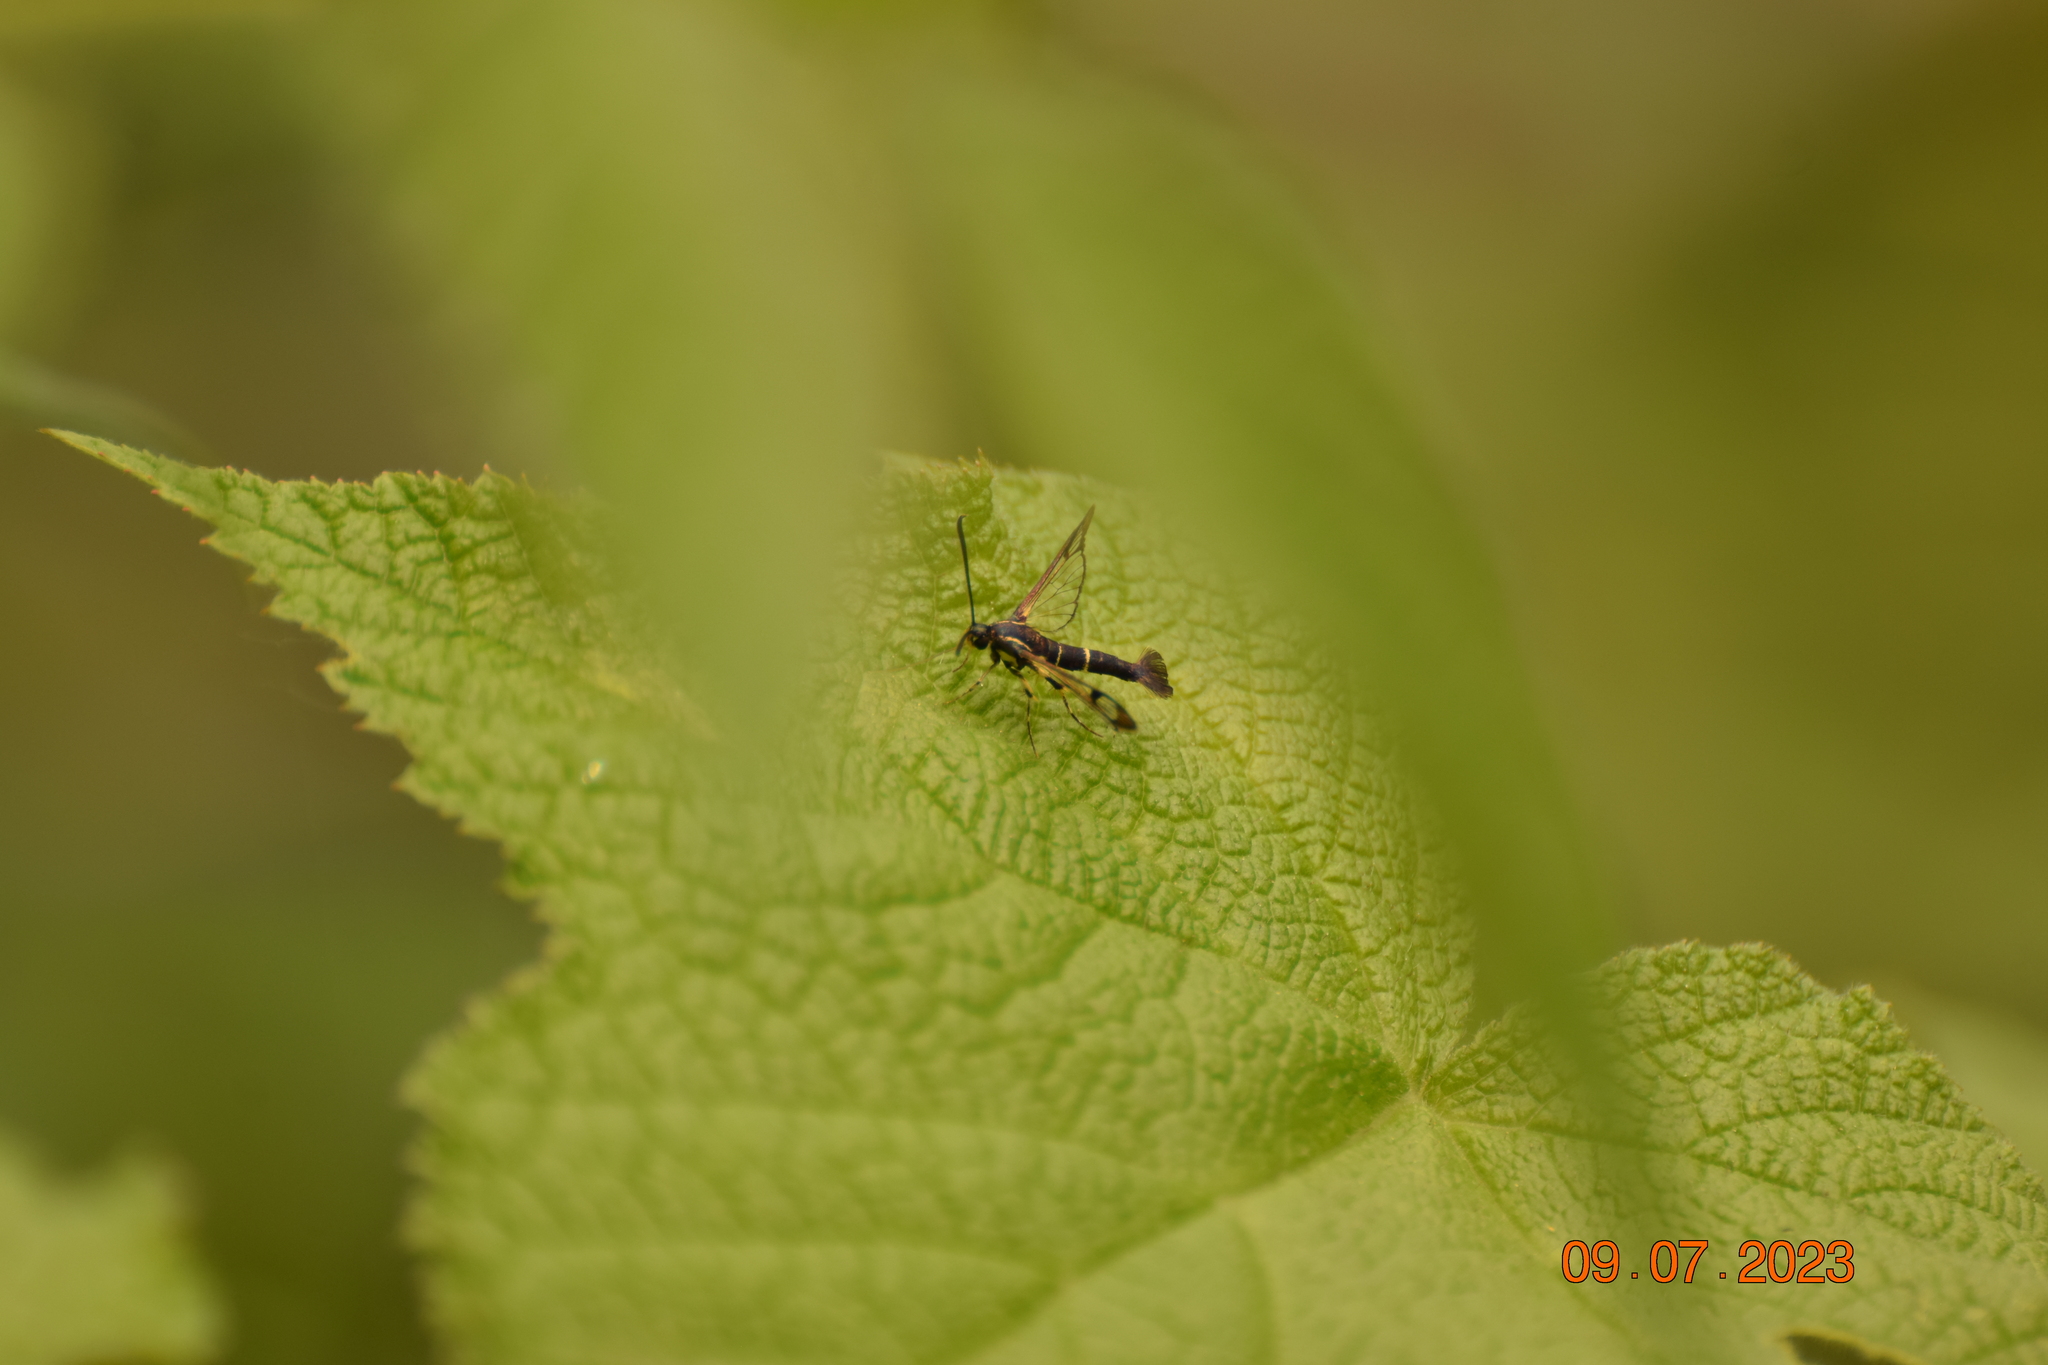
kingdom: Animalia
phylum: Arthropoda
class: Insecta
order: Lepidoptera
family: Sesiidae
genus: Synanthedon
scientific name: Synanthedon scitula
